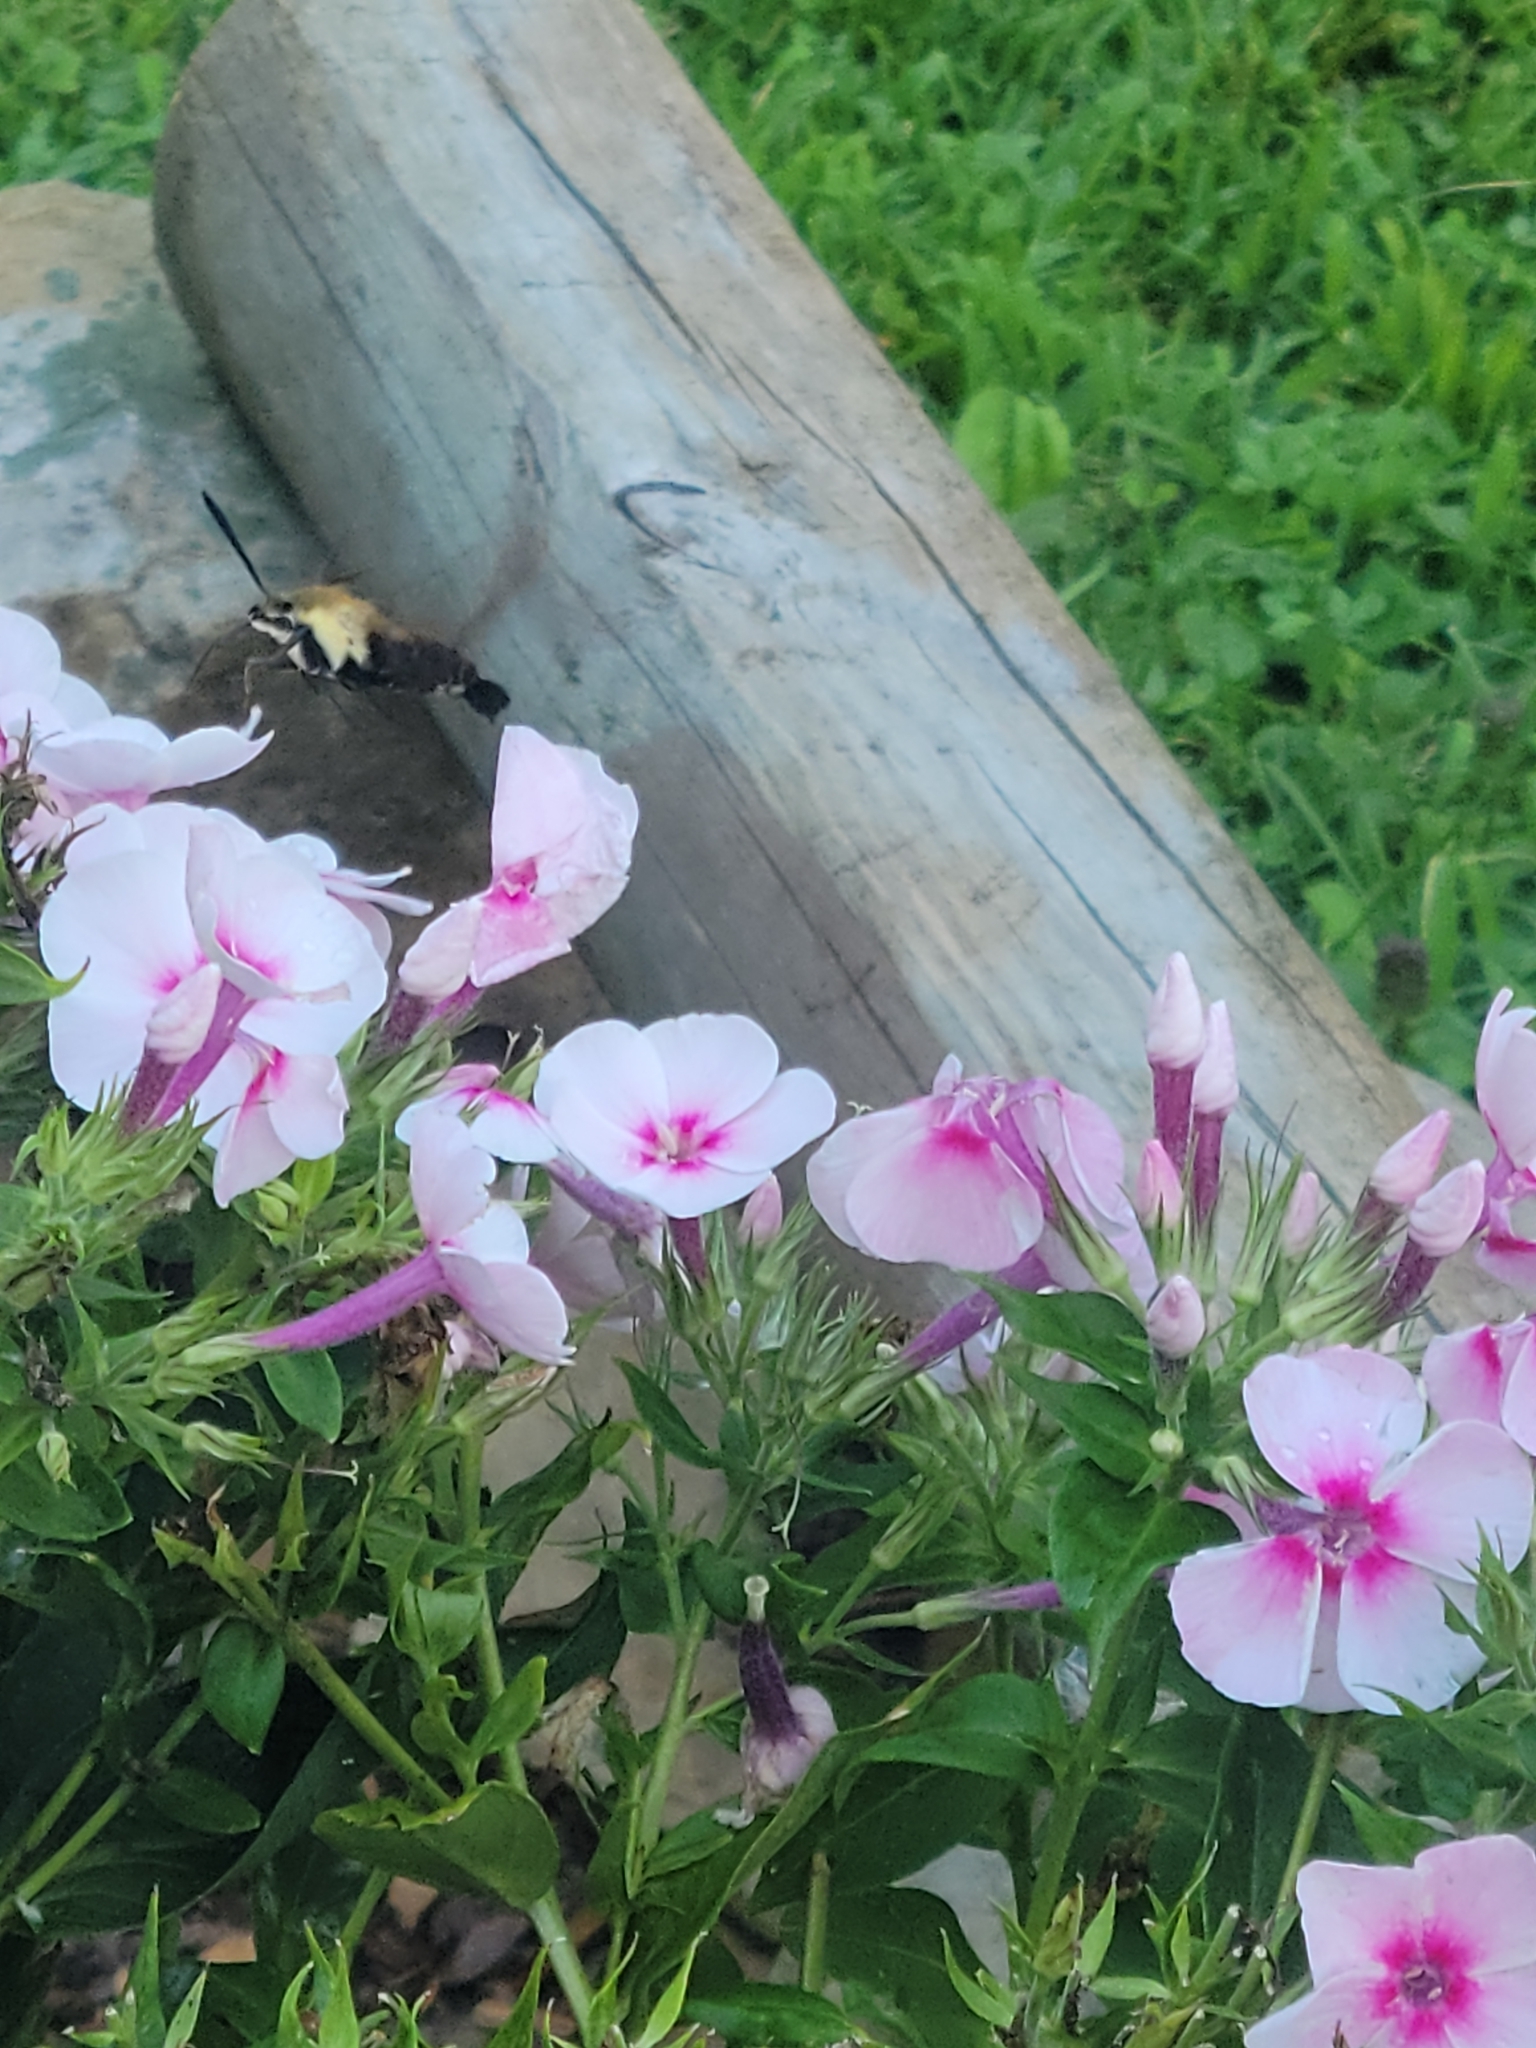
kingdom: Animalia
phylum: Arthropoda
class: Insecta
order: Lepidoptera
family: Sphingidae
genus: Hemaris
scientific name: Hemaris diffinis
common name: Bumblebee moth
